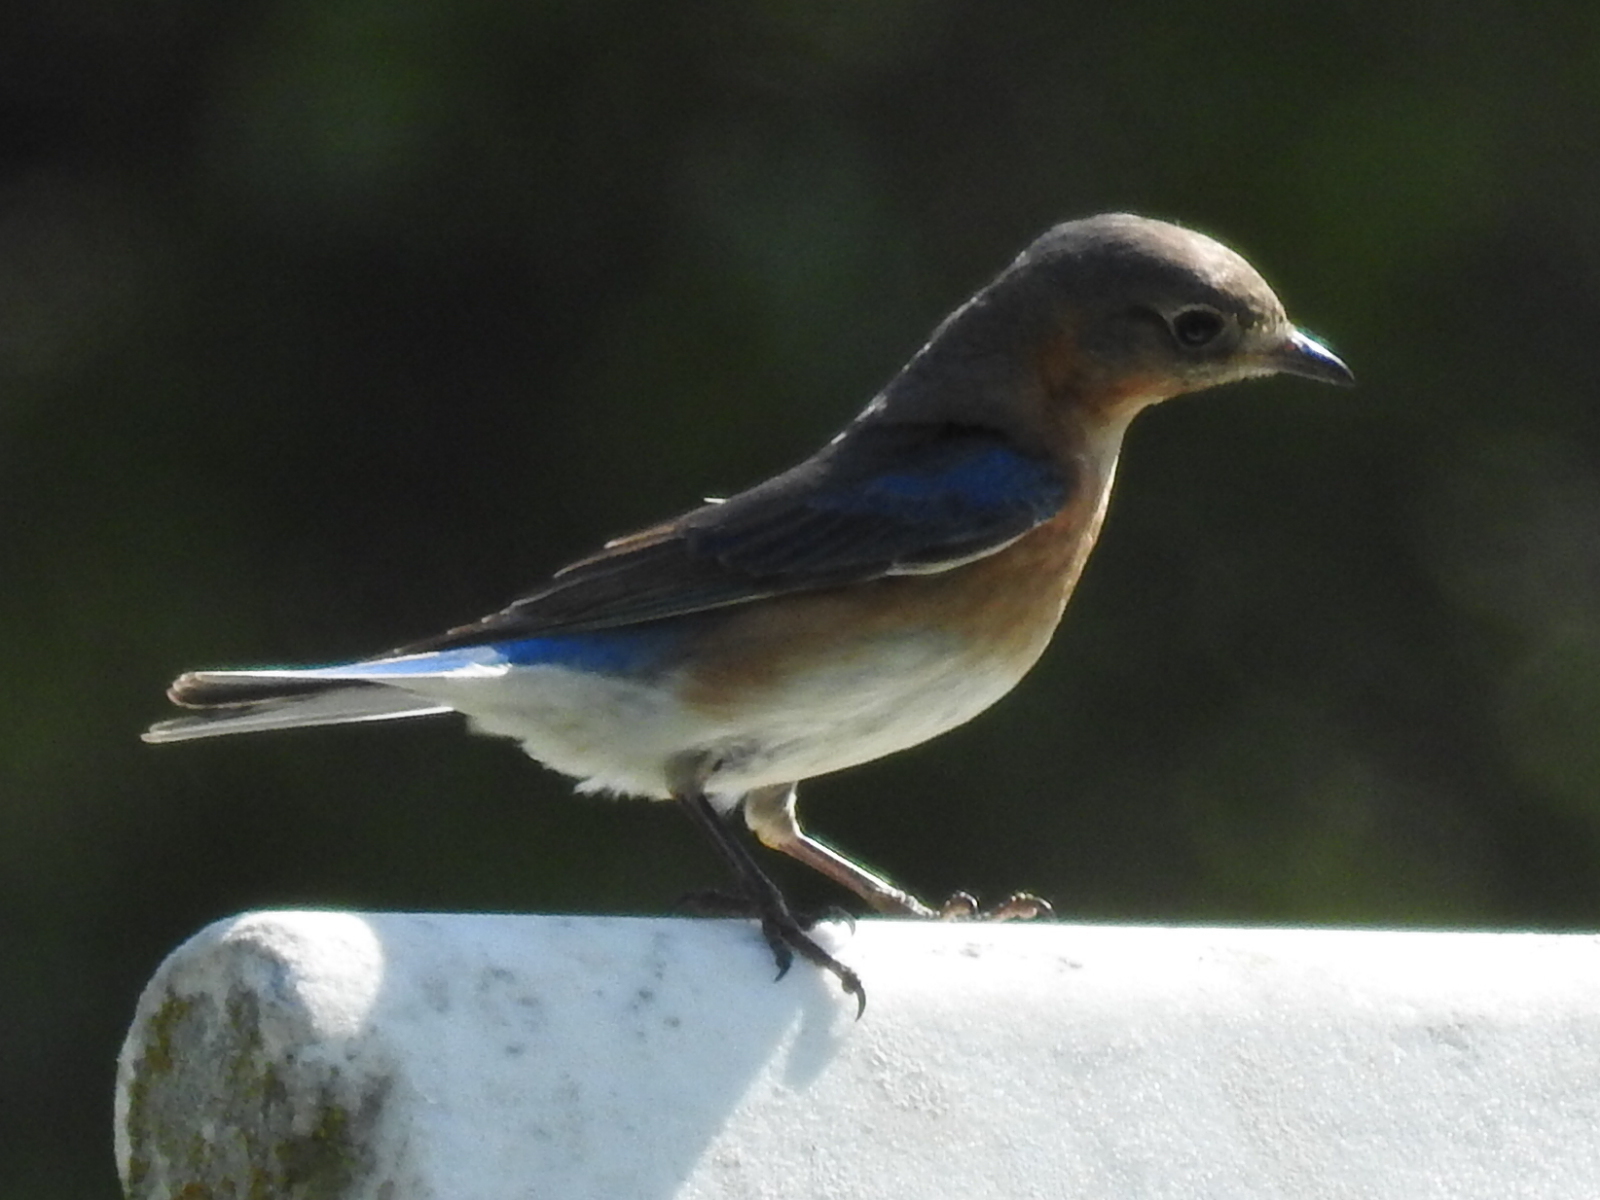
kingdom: Animalia
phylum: Chordata
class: Aves
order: Passeriformes
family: Turdidae
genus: Sialia
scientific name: Sialia sialis
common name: Eastern bluebird
